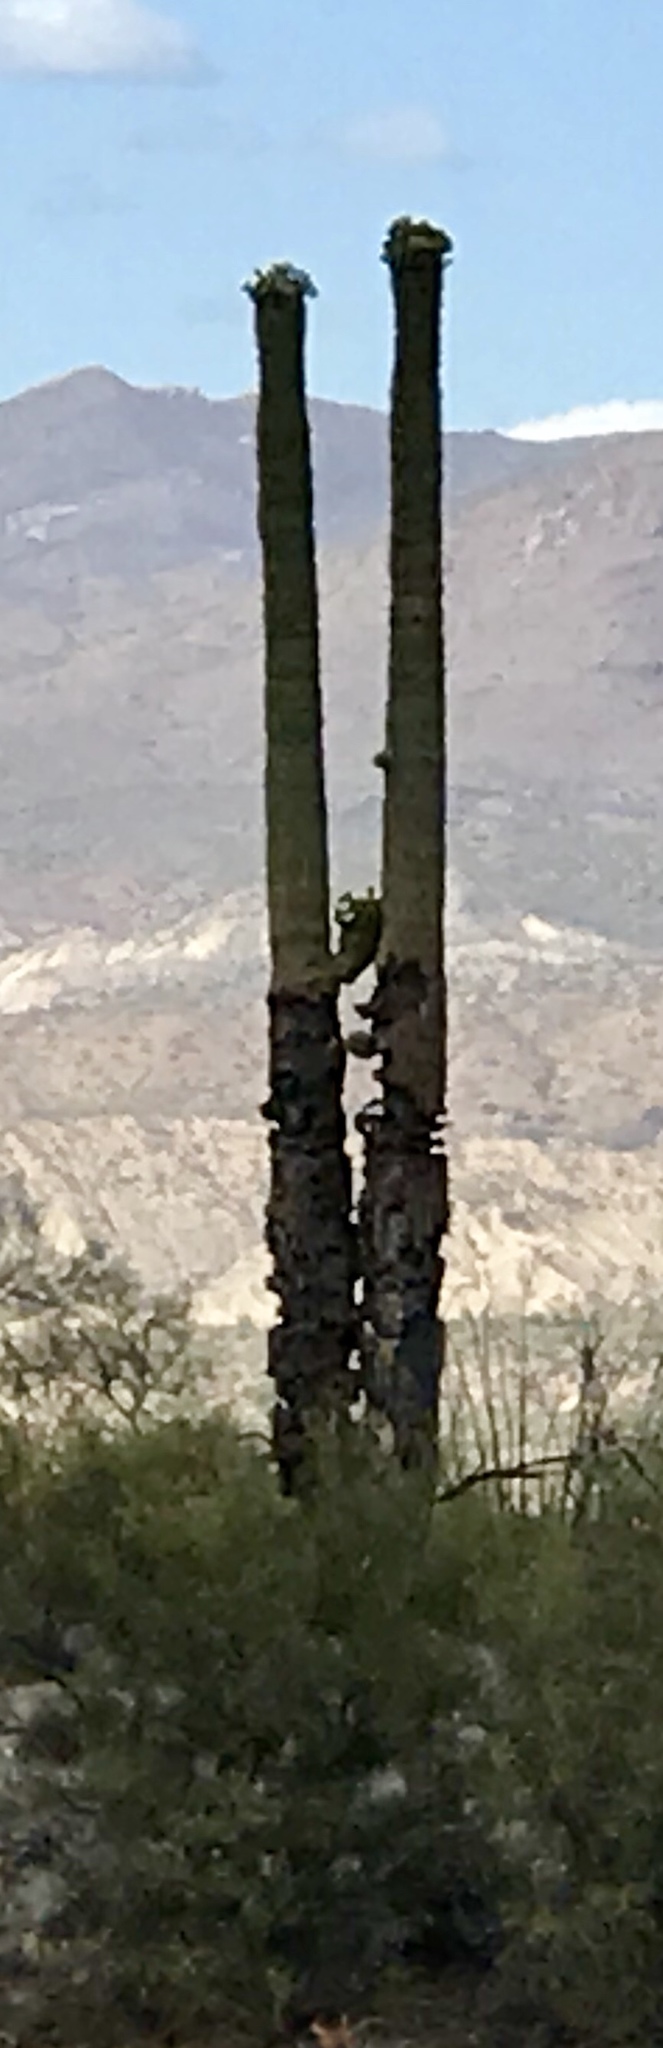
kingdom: Plantae
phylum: Tracheophyta
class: Magnoliopsida
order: Caryophyllales
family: Cactaceae
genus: Carnegiea
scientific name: Carnegiea gigantea
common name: Saguaro
